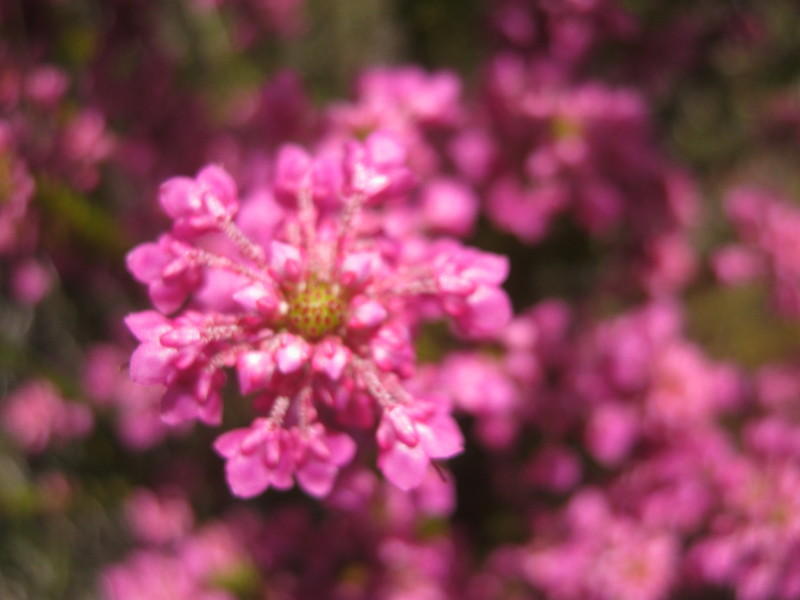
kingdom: Plantae
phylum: Tracheophyta
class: Magnoliopsida
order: Ericales
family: Ericaceae
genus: Erica
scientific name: Erica seriphiifolia
